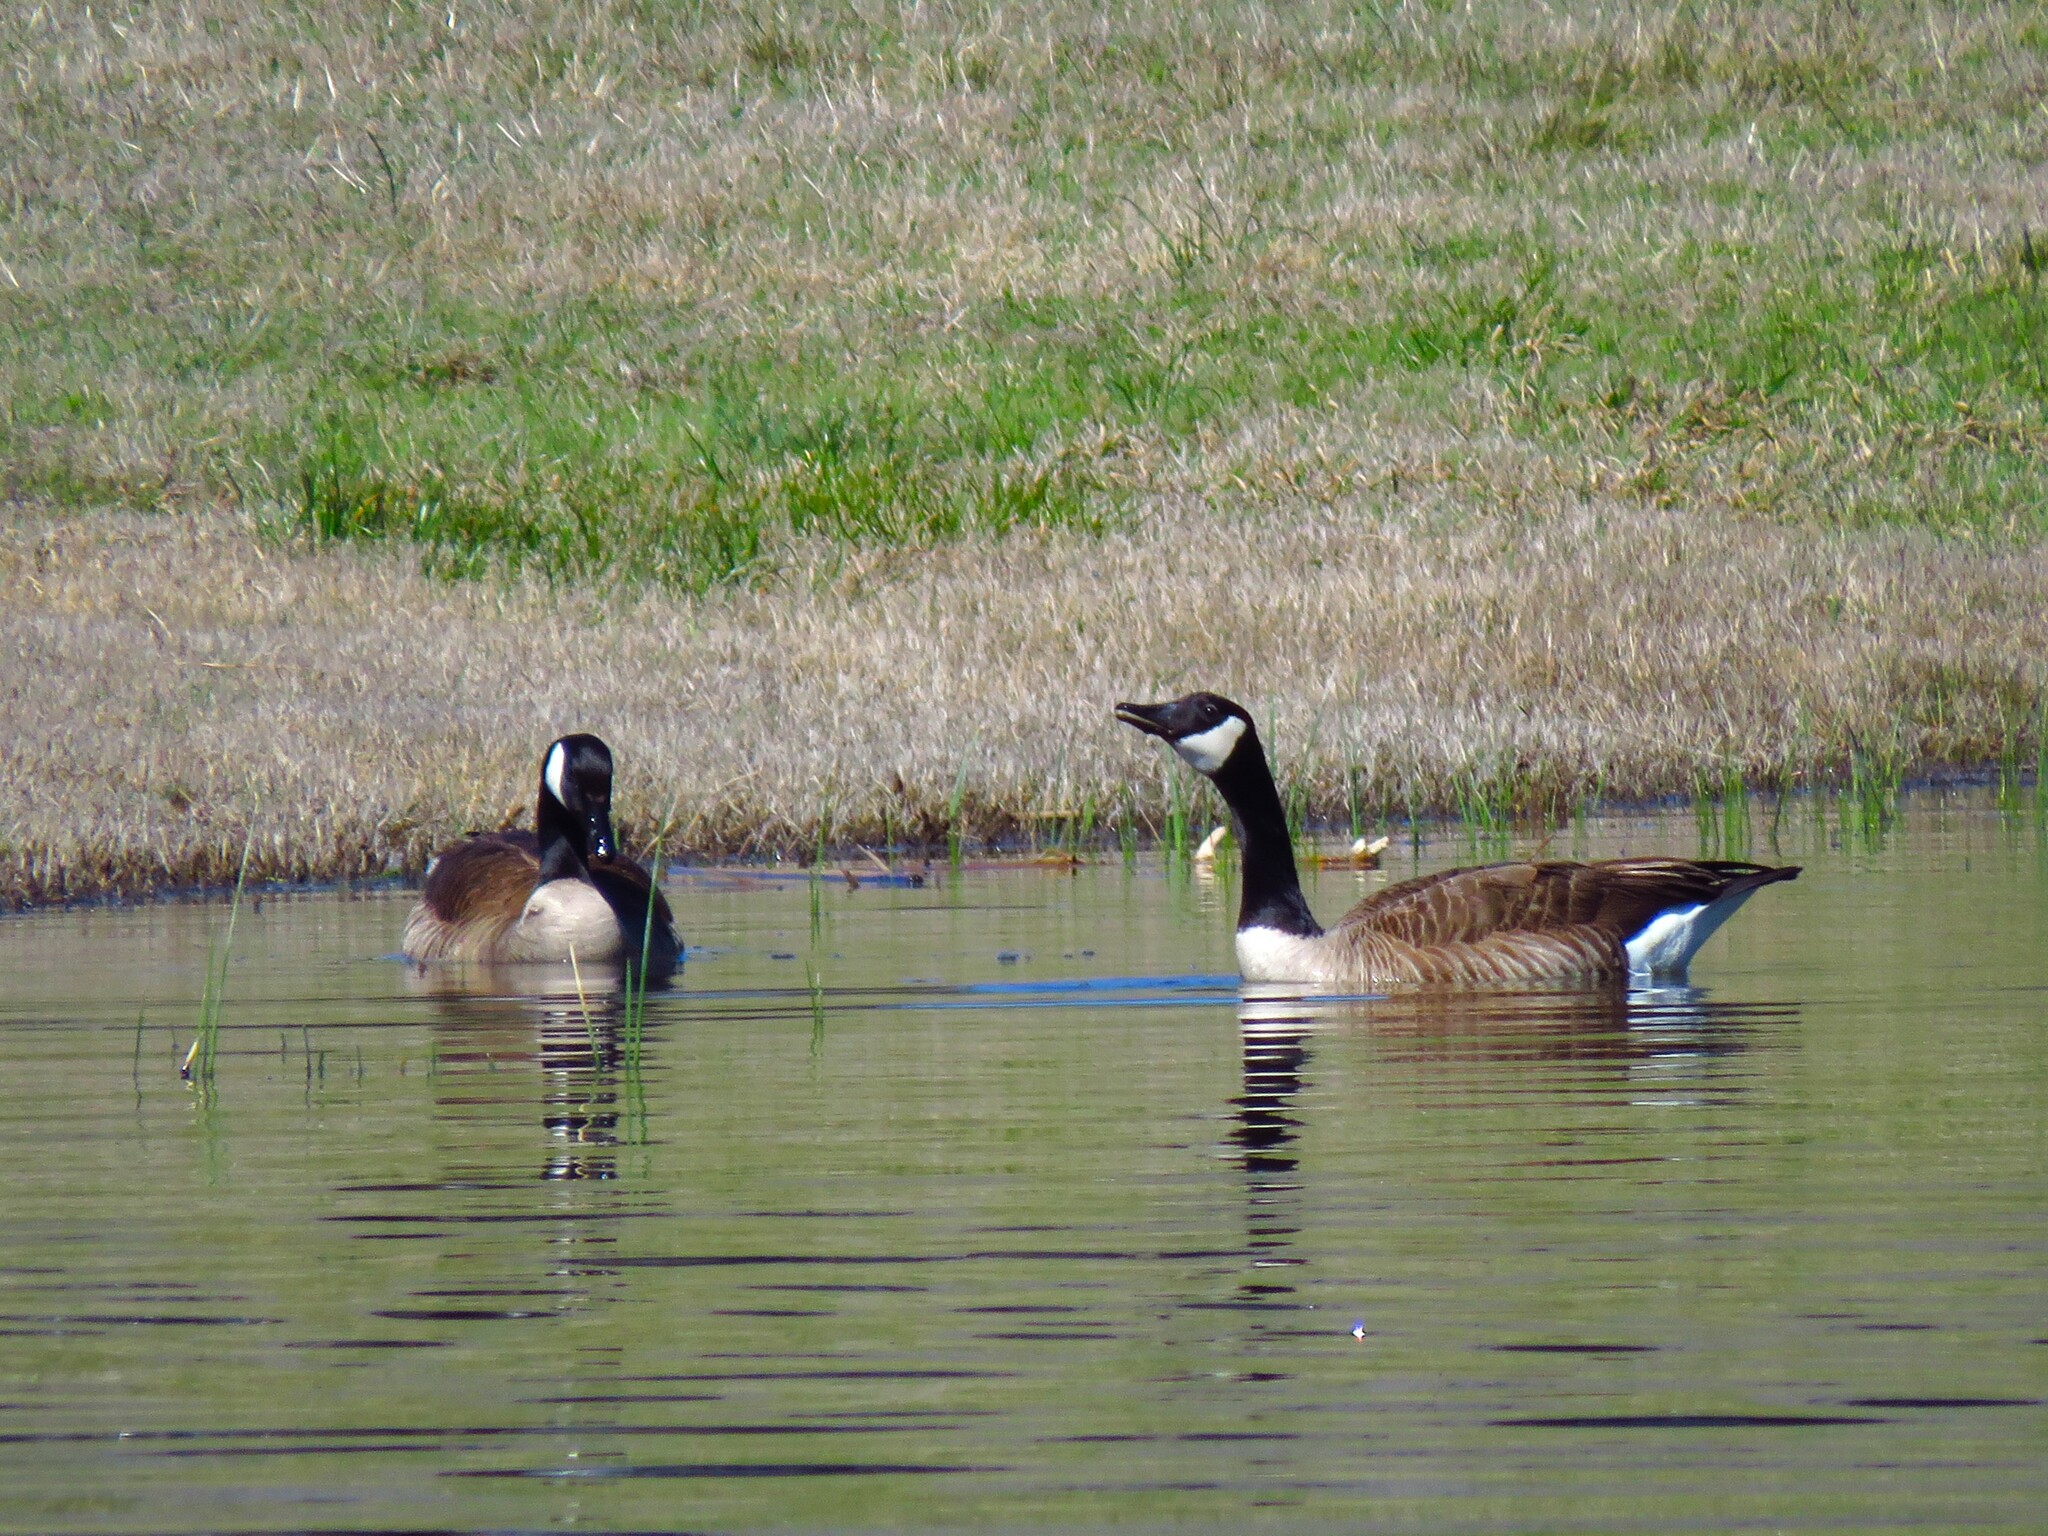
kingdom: Animalia
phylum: Chordata
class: Aves
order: Anseriformes
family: Anatidae
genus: Branta
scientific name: Branta canadensis
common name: Canada goose
